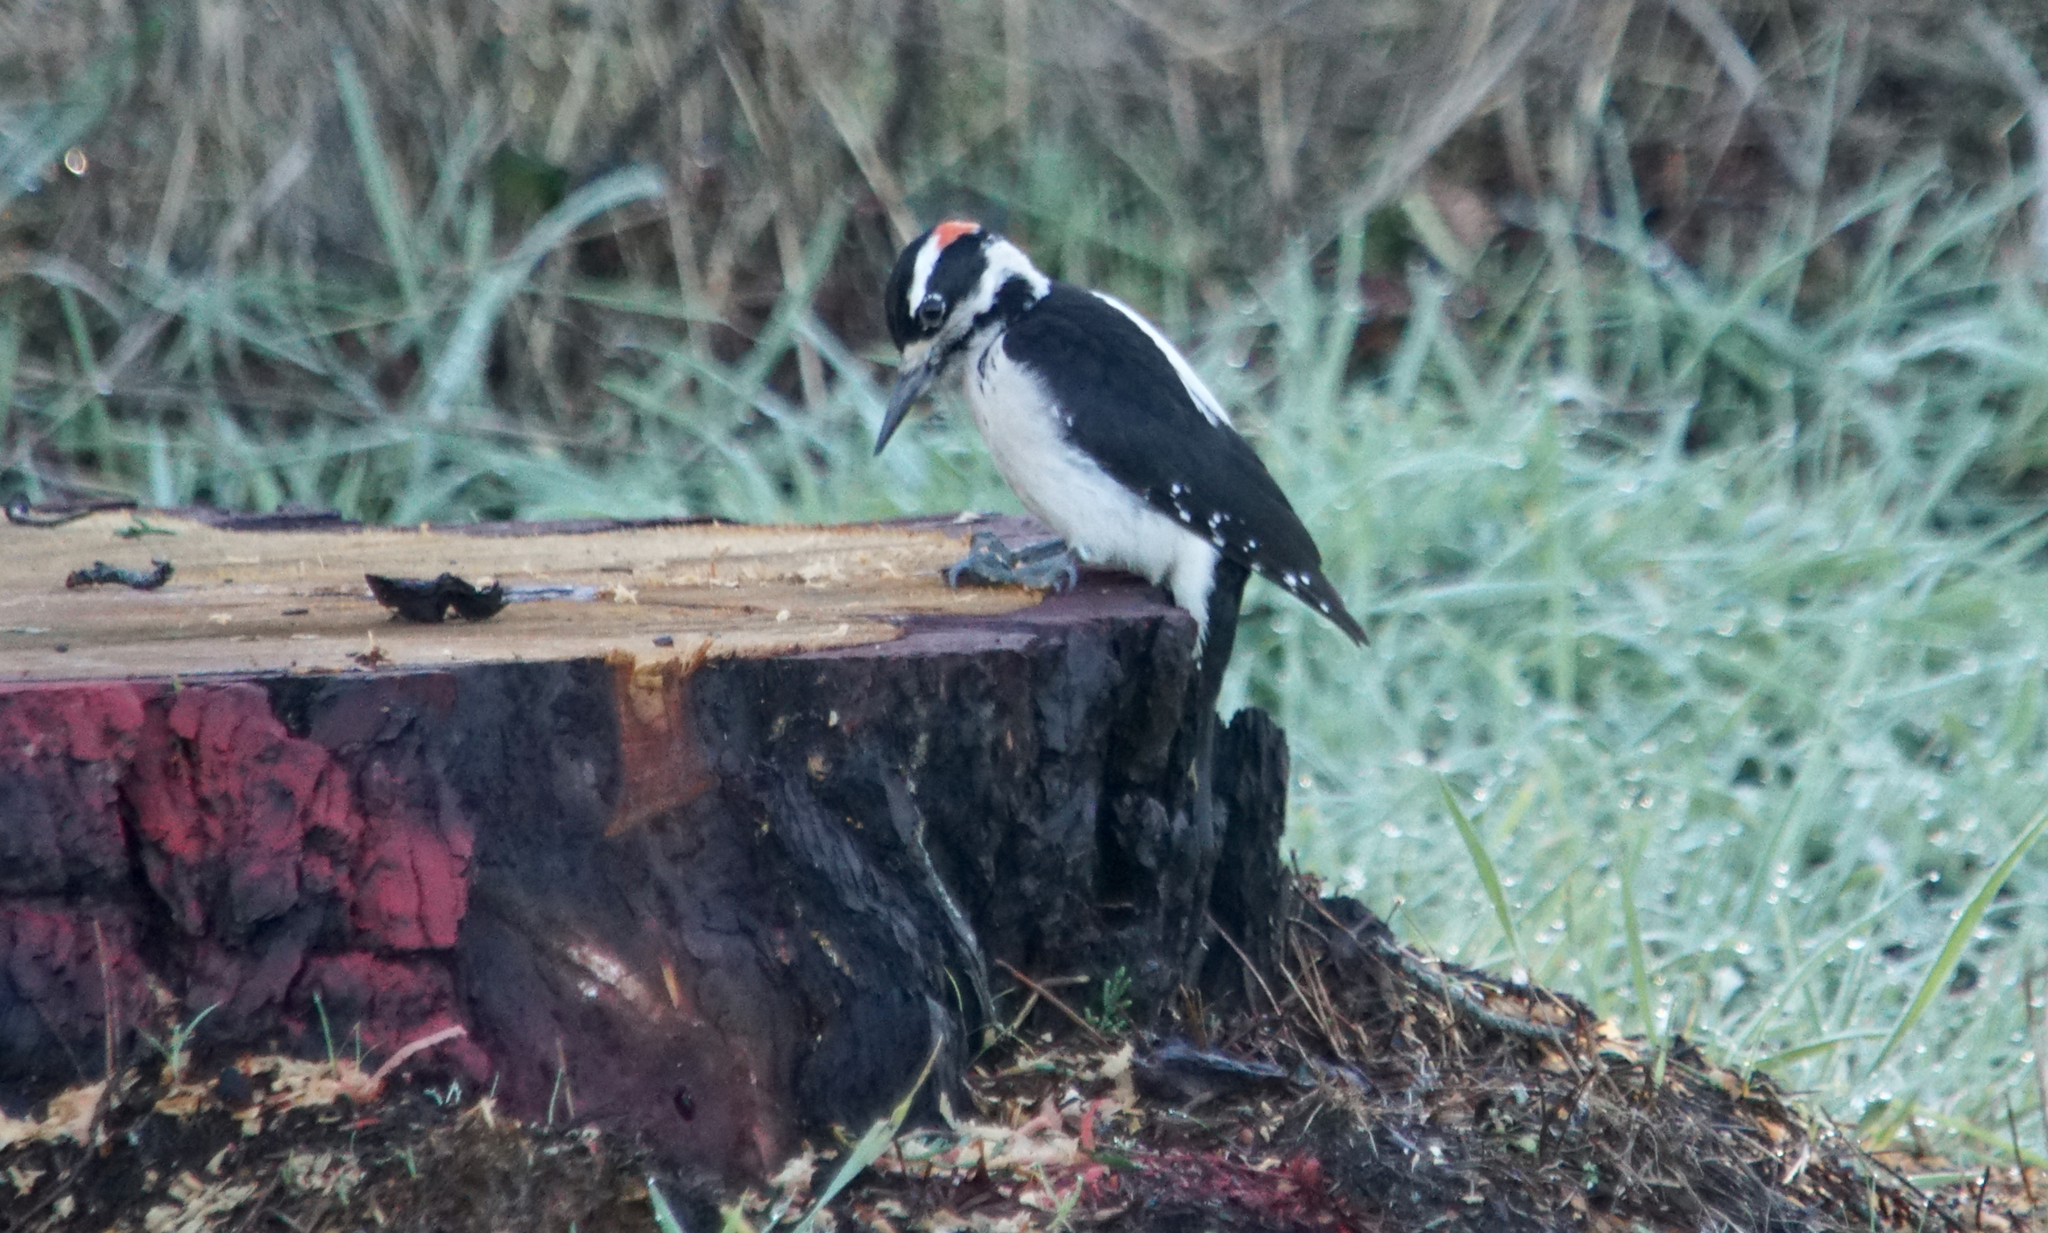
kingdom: Animalia
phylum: Chordata
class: Aves
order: Piciformes
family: Picidae
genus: Leuconotopicus
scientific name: Leuconotopicus villosus
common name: Hairy woodpecker
